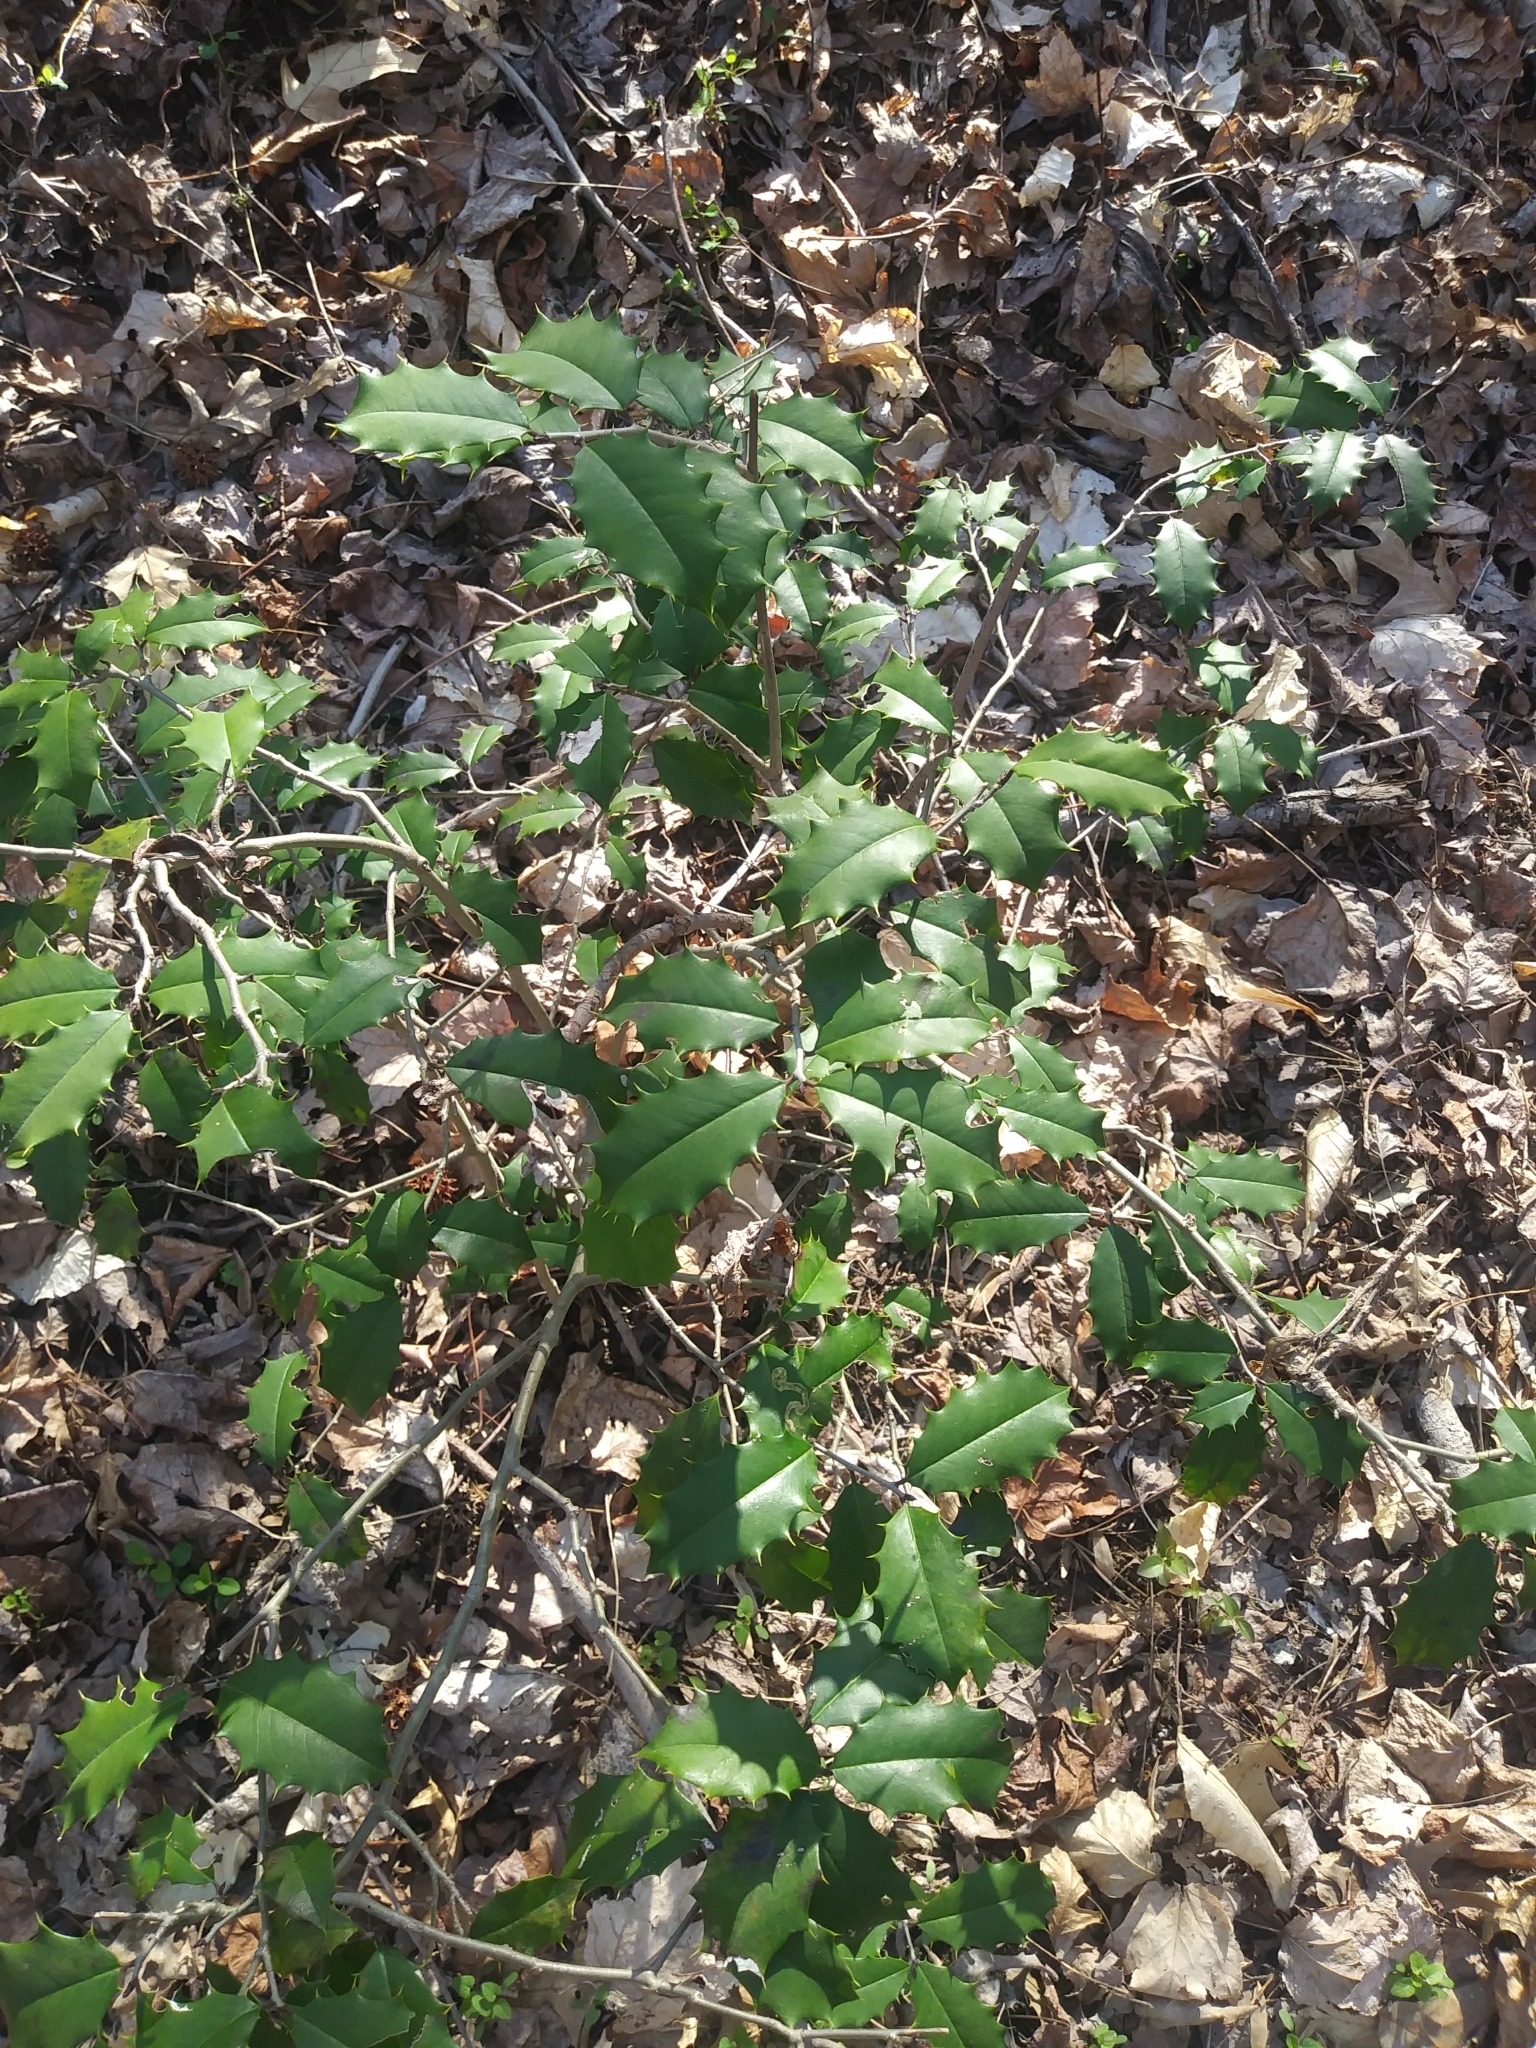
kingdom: Plantae
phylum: Tracheophyta
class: Magnoliopsida
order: Aquifoliales
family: Aquifoliaceae
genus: Ilex
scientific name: Ilex opaca
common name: American holly
